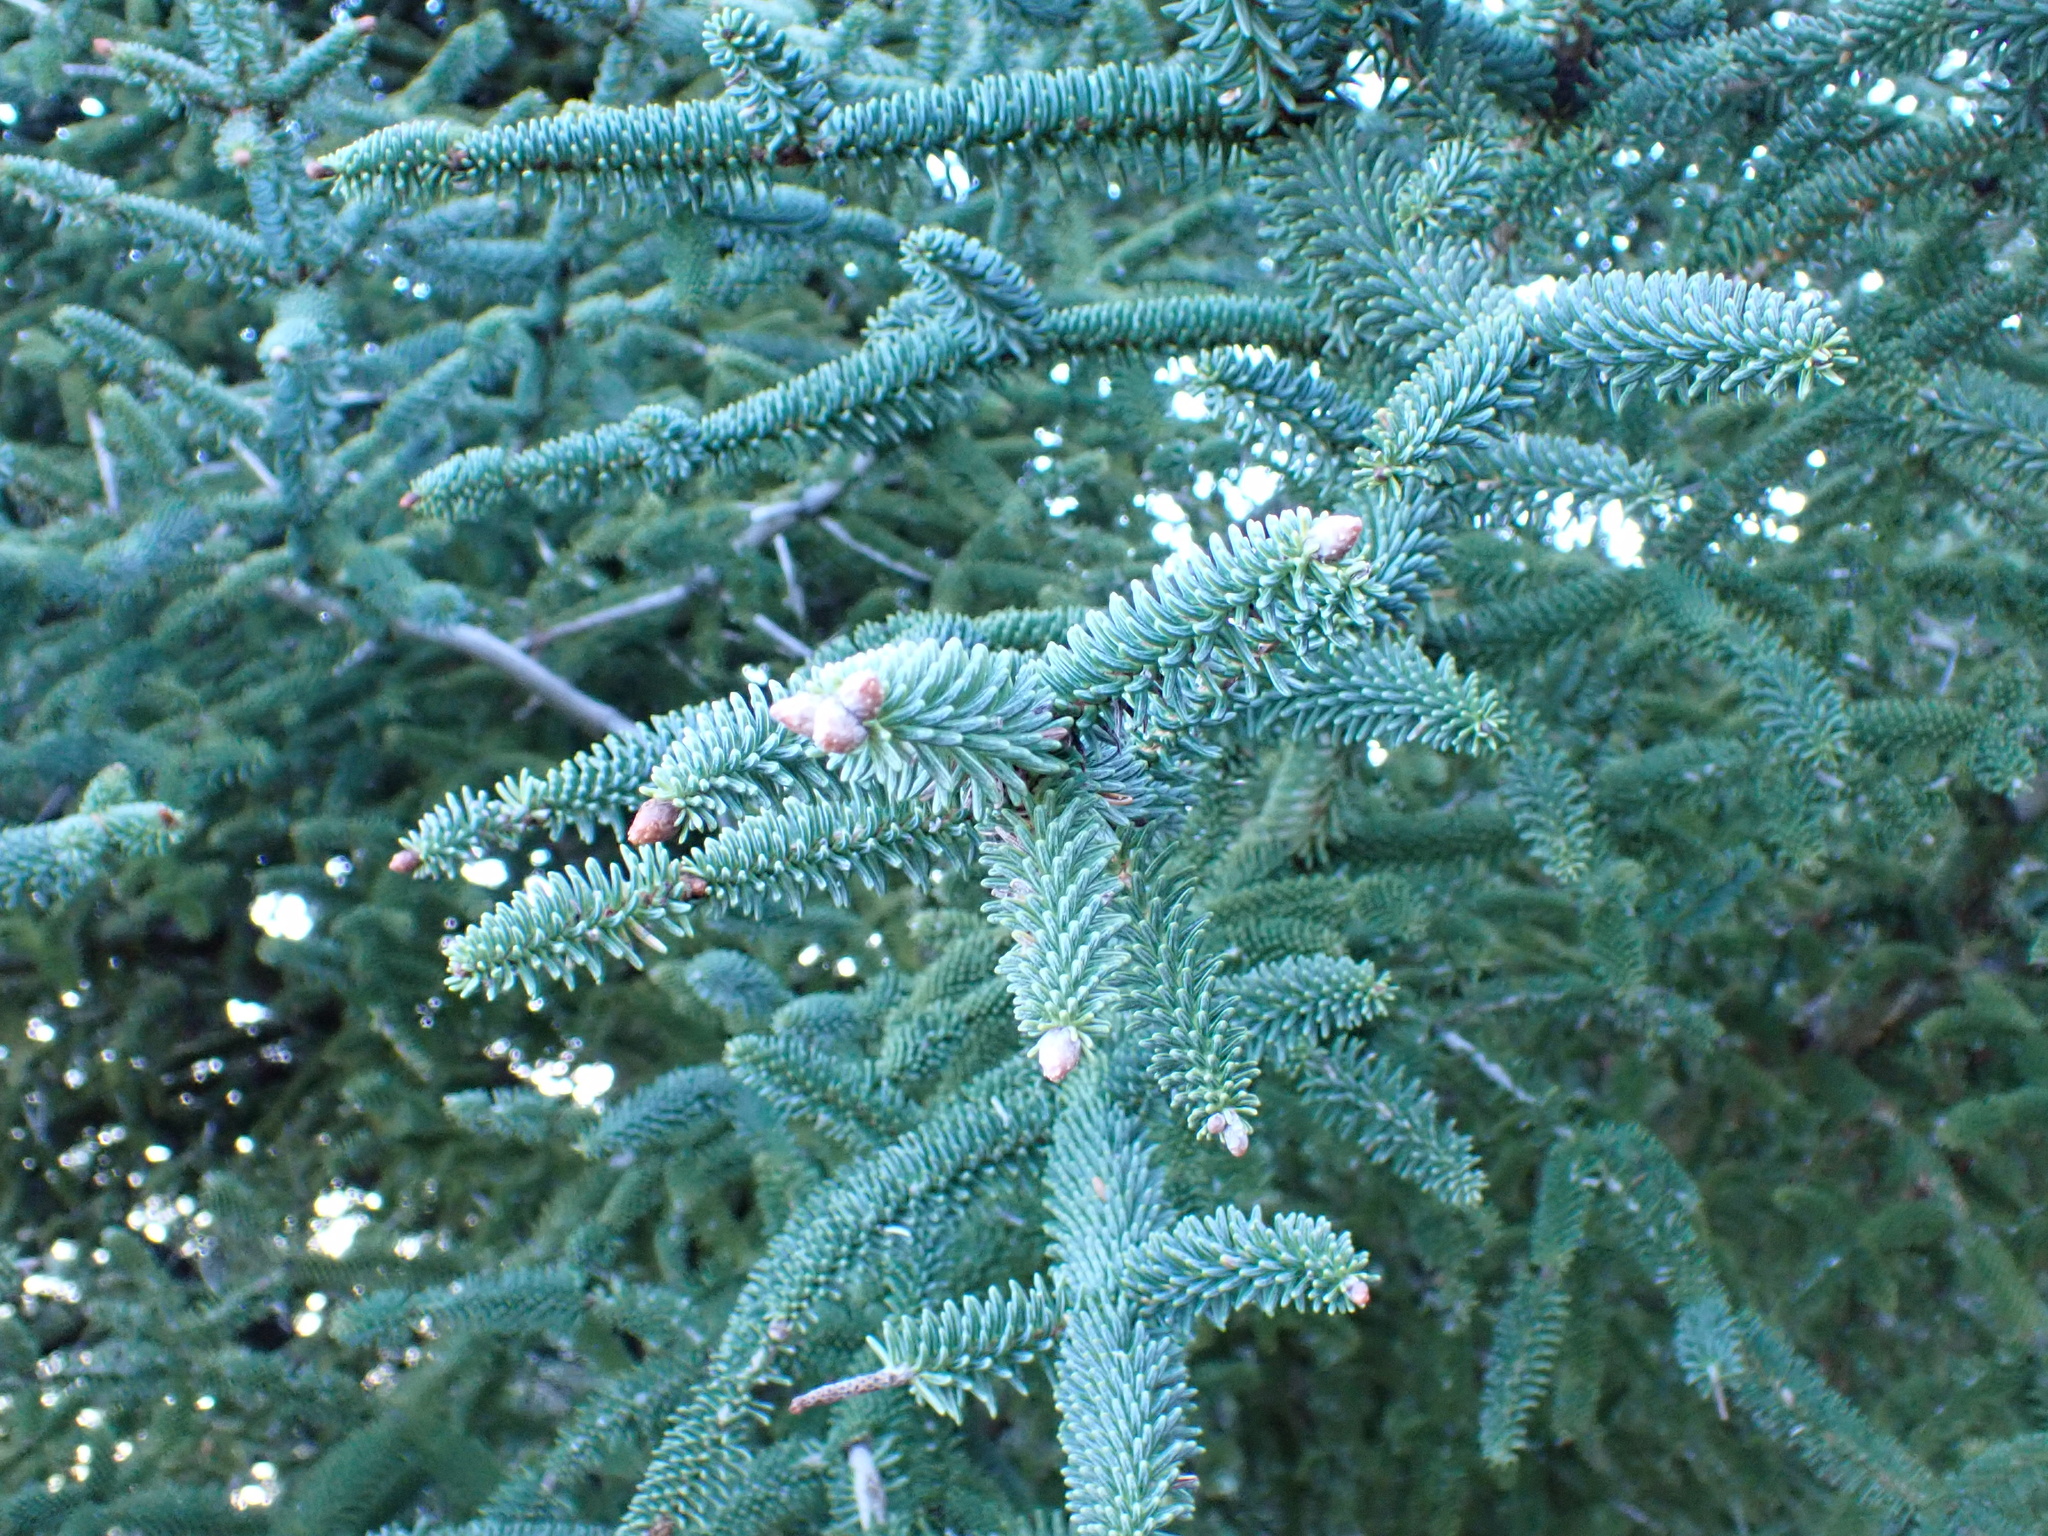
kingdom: Plantae
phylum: Tracheophyta
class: Pinopsida
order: Pinales
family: Pinaceae
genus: Abies
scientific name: Abies pinsapo
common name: Spanish fir
